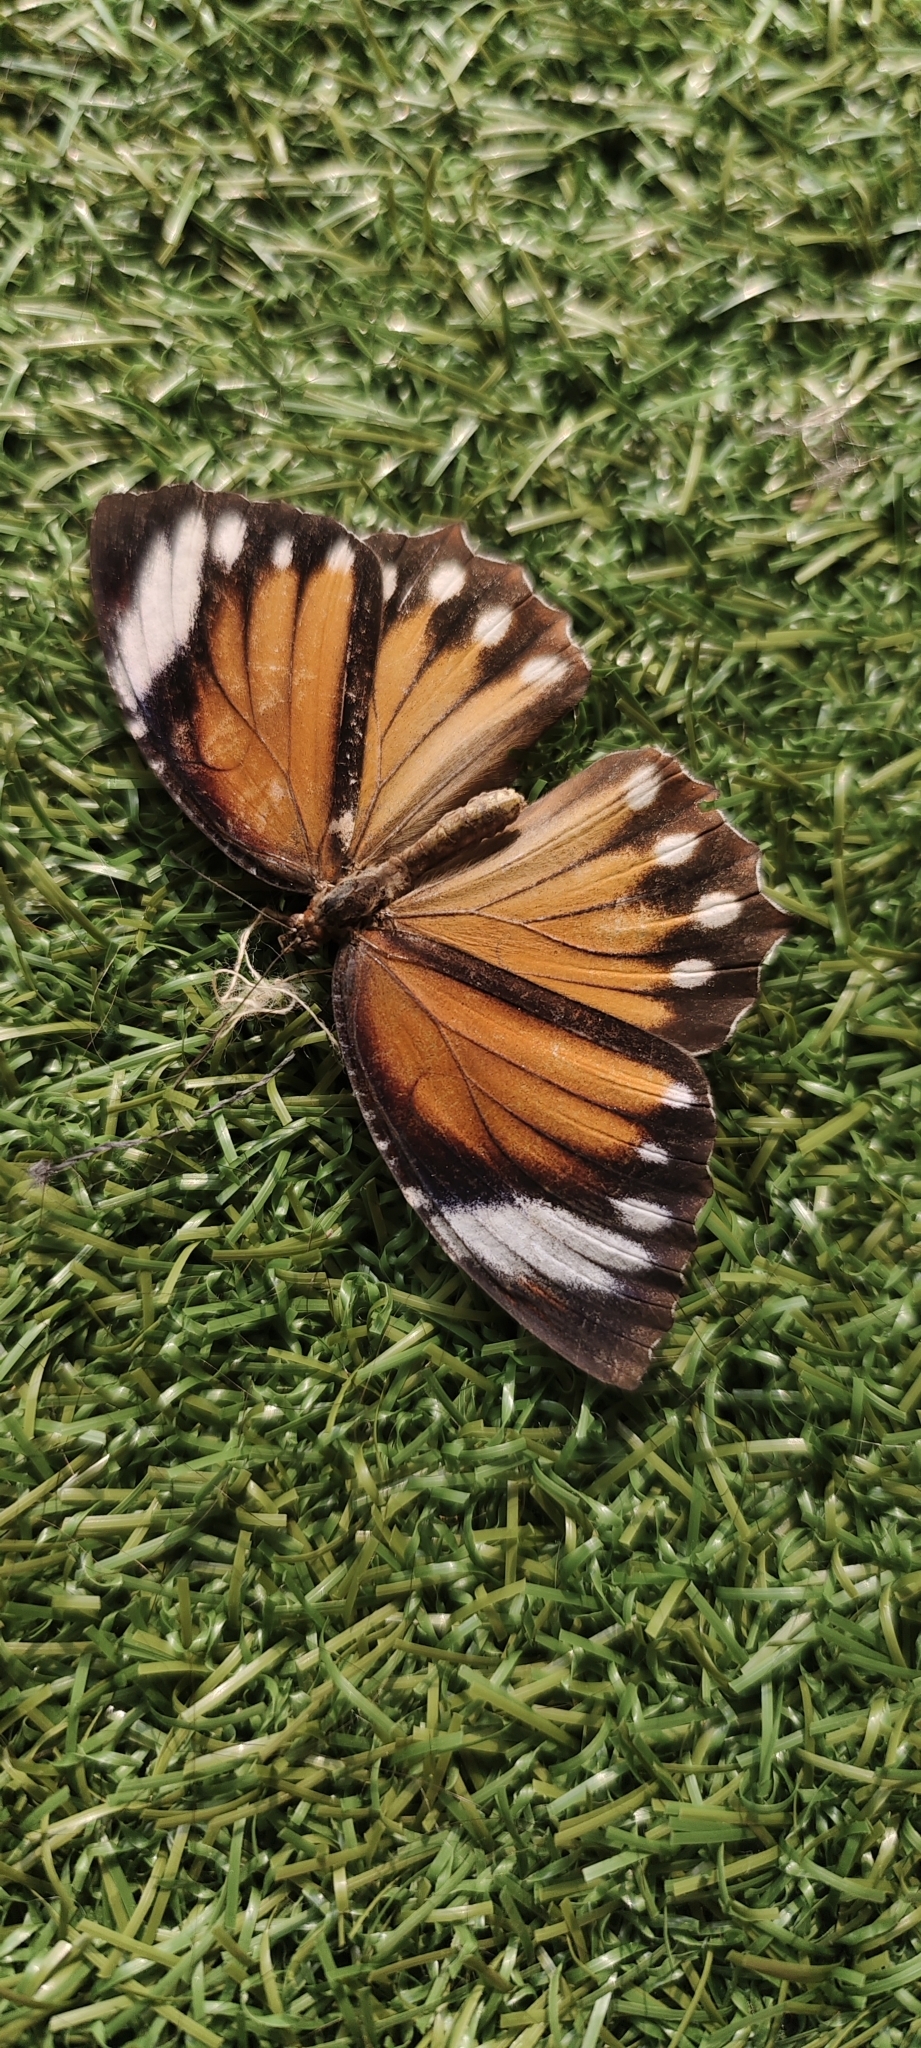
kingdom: Animalia
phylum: Arthropoda
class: Insecta
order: Lepidoptera
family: Nymphalidae
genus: Elymnias
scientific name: Elymnias hypermnestra
